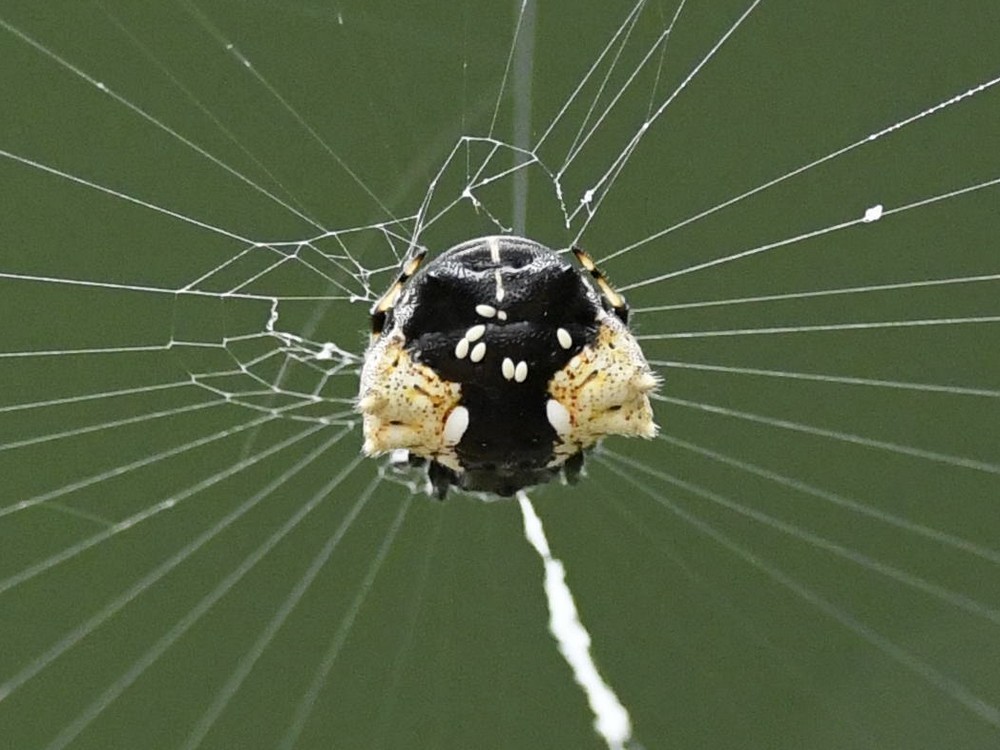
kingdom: Animalia
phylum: Arthropoda
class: Arachnida
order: Araneae
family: Araneidae
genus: Gasteracantha
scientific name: Gasteracantha mediofusca
